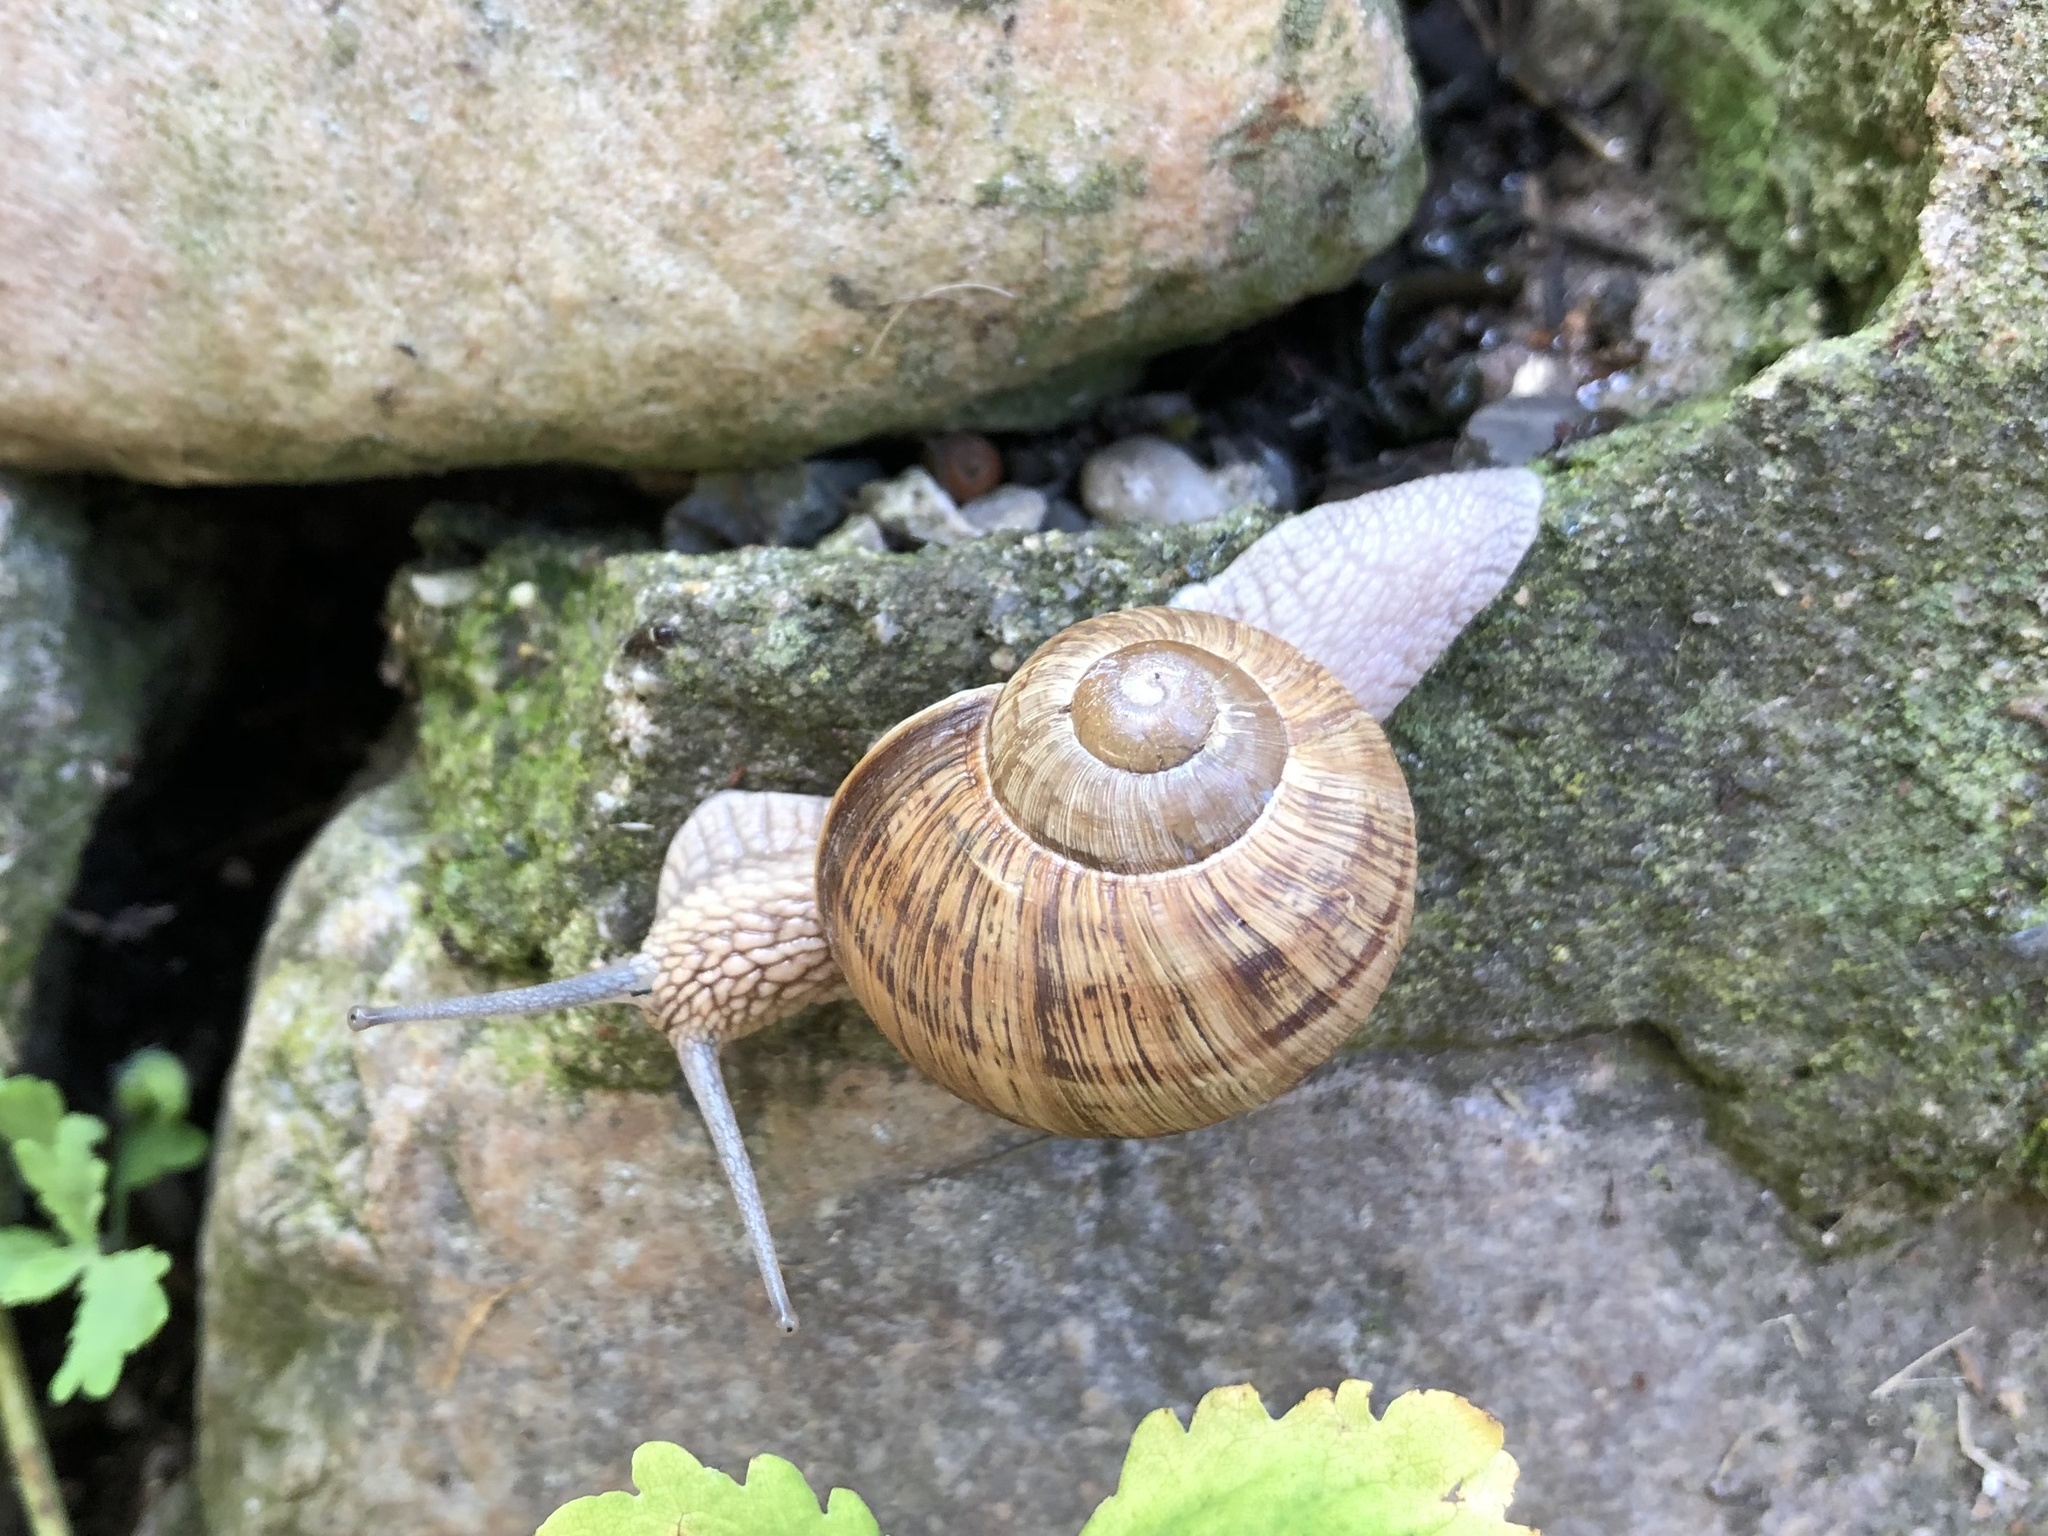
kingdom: Animalia
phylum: Mollusca
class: Gastropoda
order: Stylommatophora
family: Helicidae
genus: Helix
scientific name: Helix pomatia
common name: Roman snail
